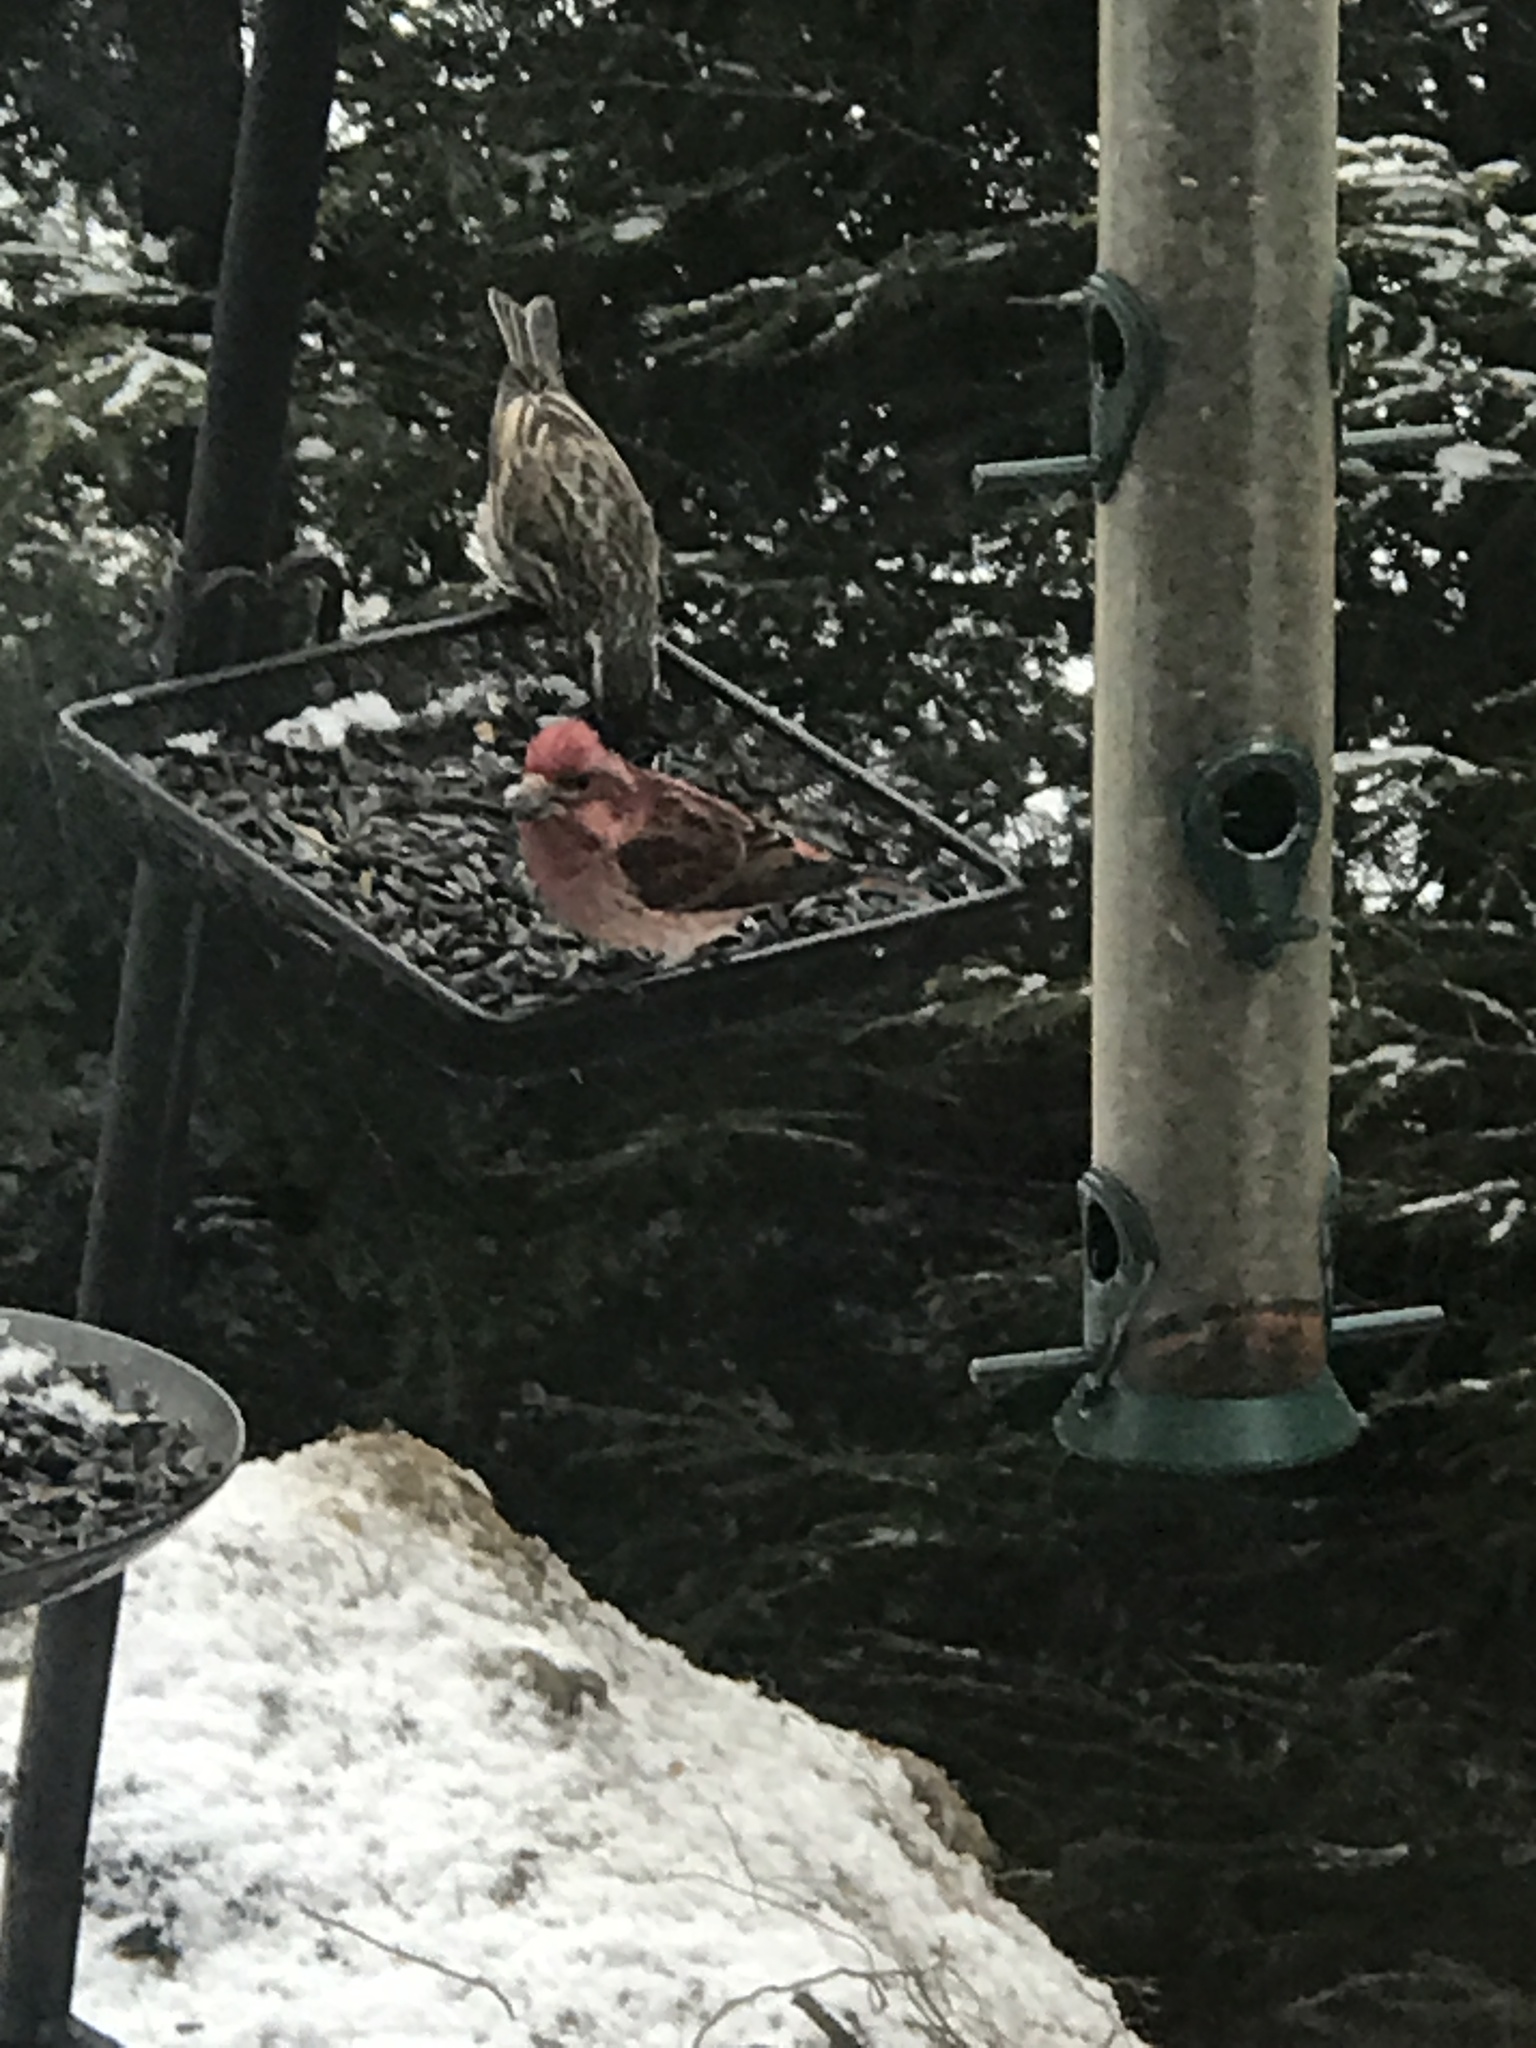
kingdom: Animalia
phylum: Chordata
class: Aves
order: Passeriformes
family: Fringillidae
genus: Haemorhous
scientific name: Haemorhous purpureus
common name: Purple finch
